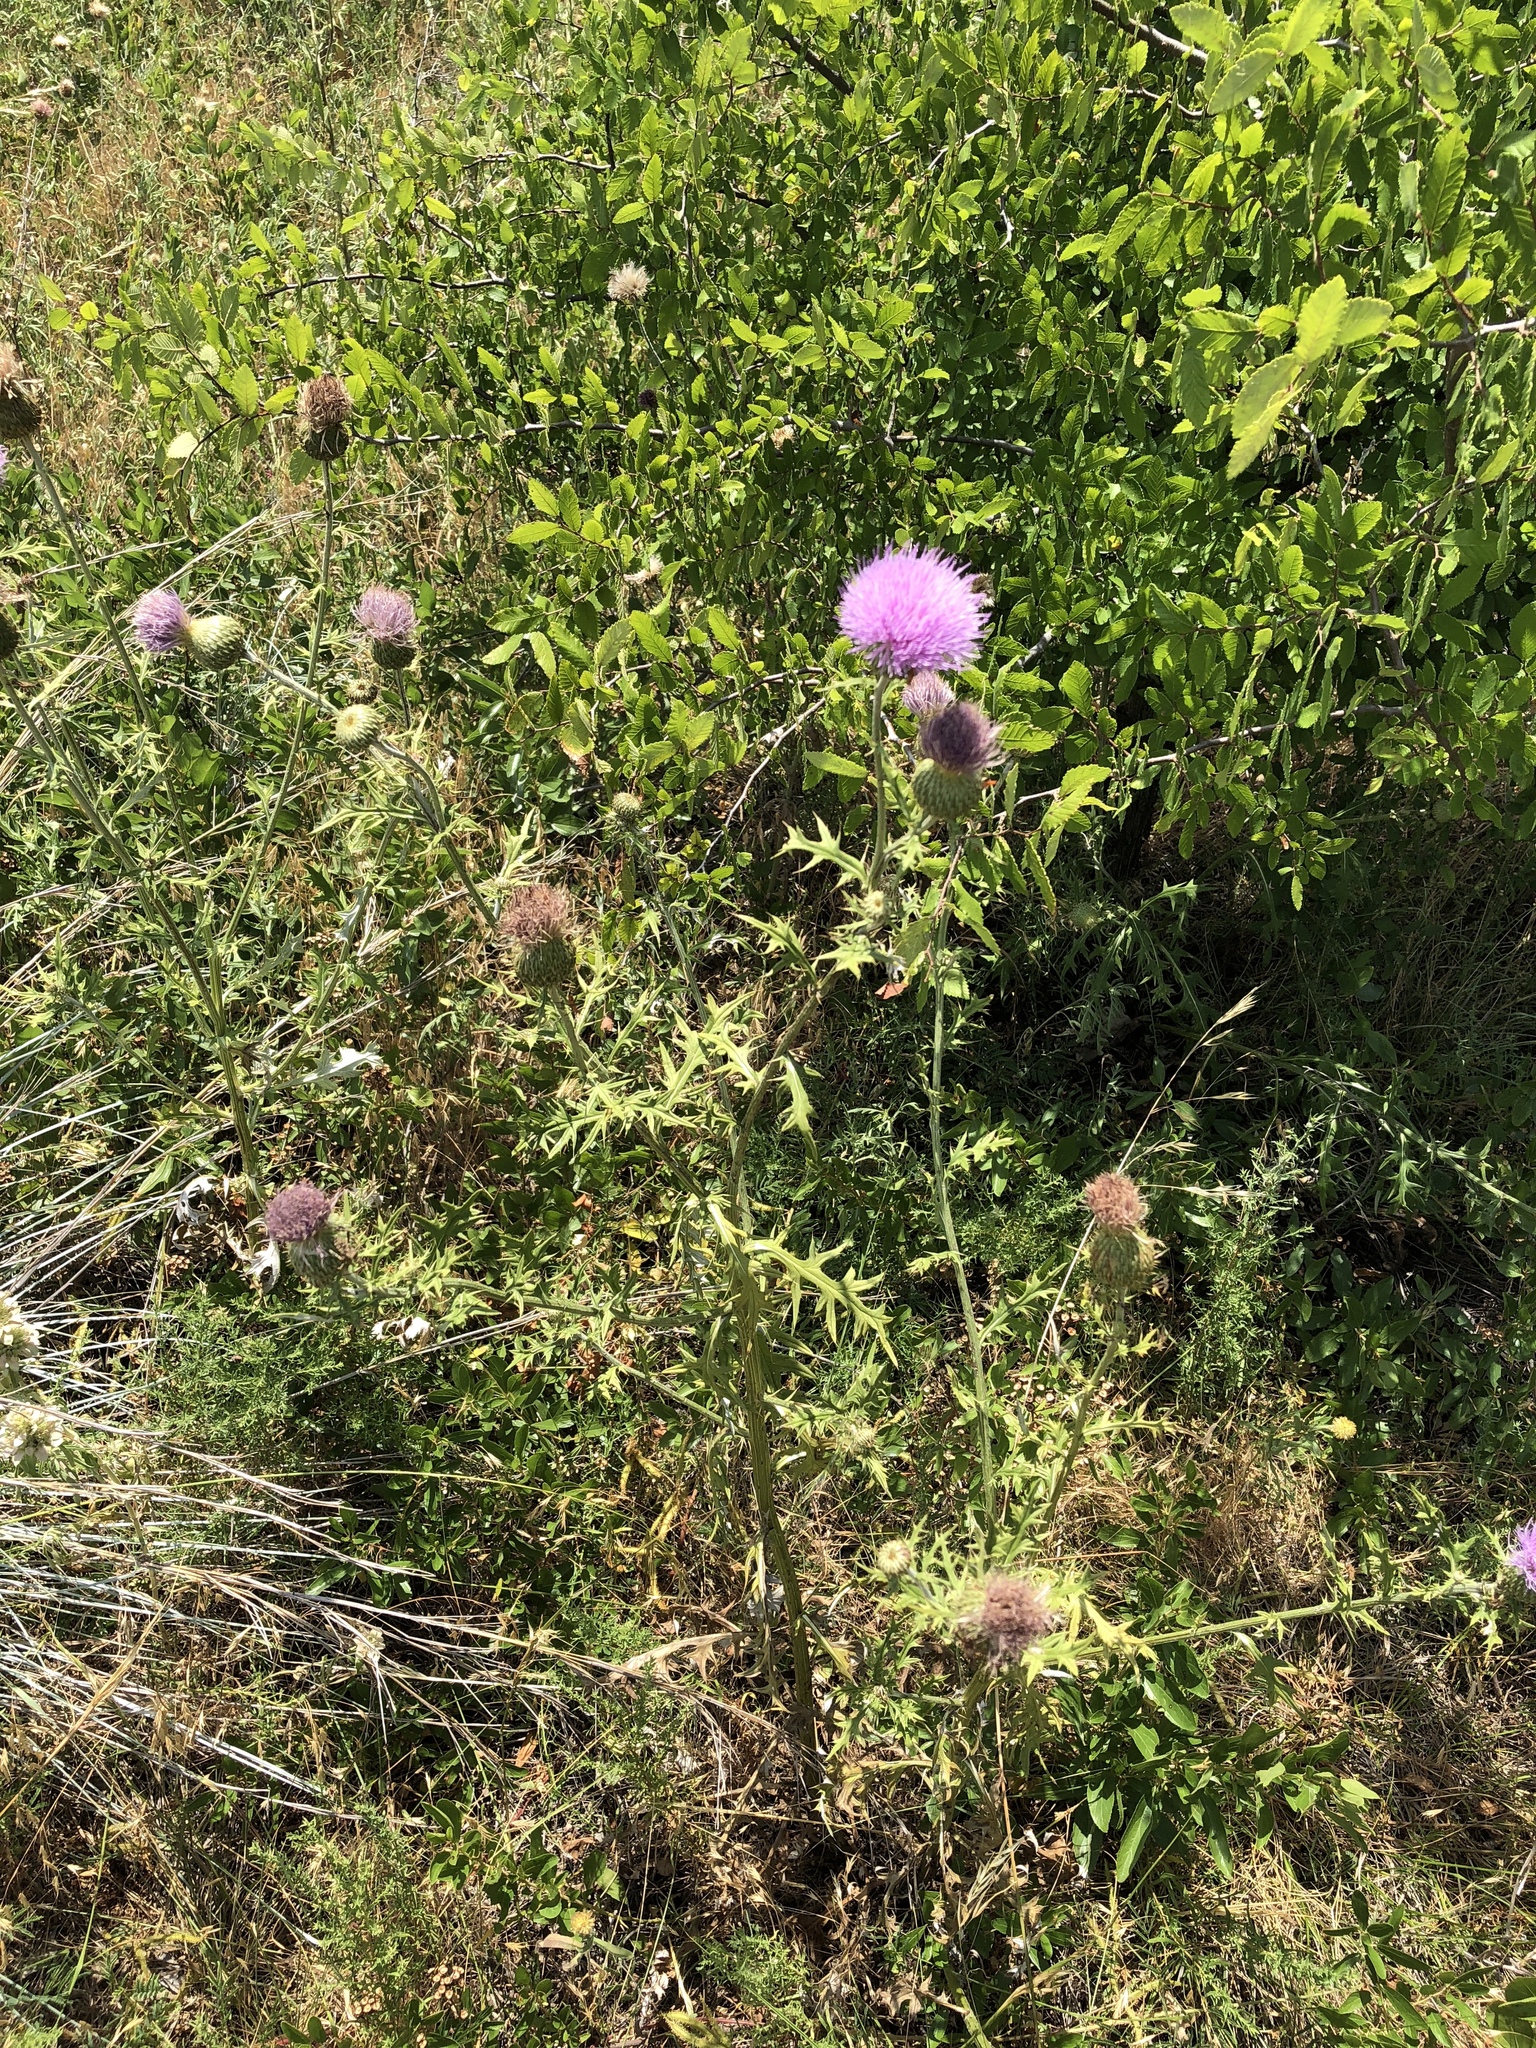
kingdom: Plantae
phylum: Tracheophyta
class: Magnoliopsida
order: Asterales
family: Asteraceae
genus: Cirsium
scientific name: Cirsium engelmannii
